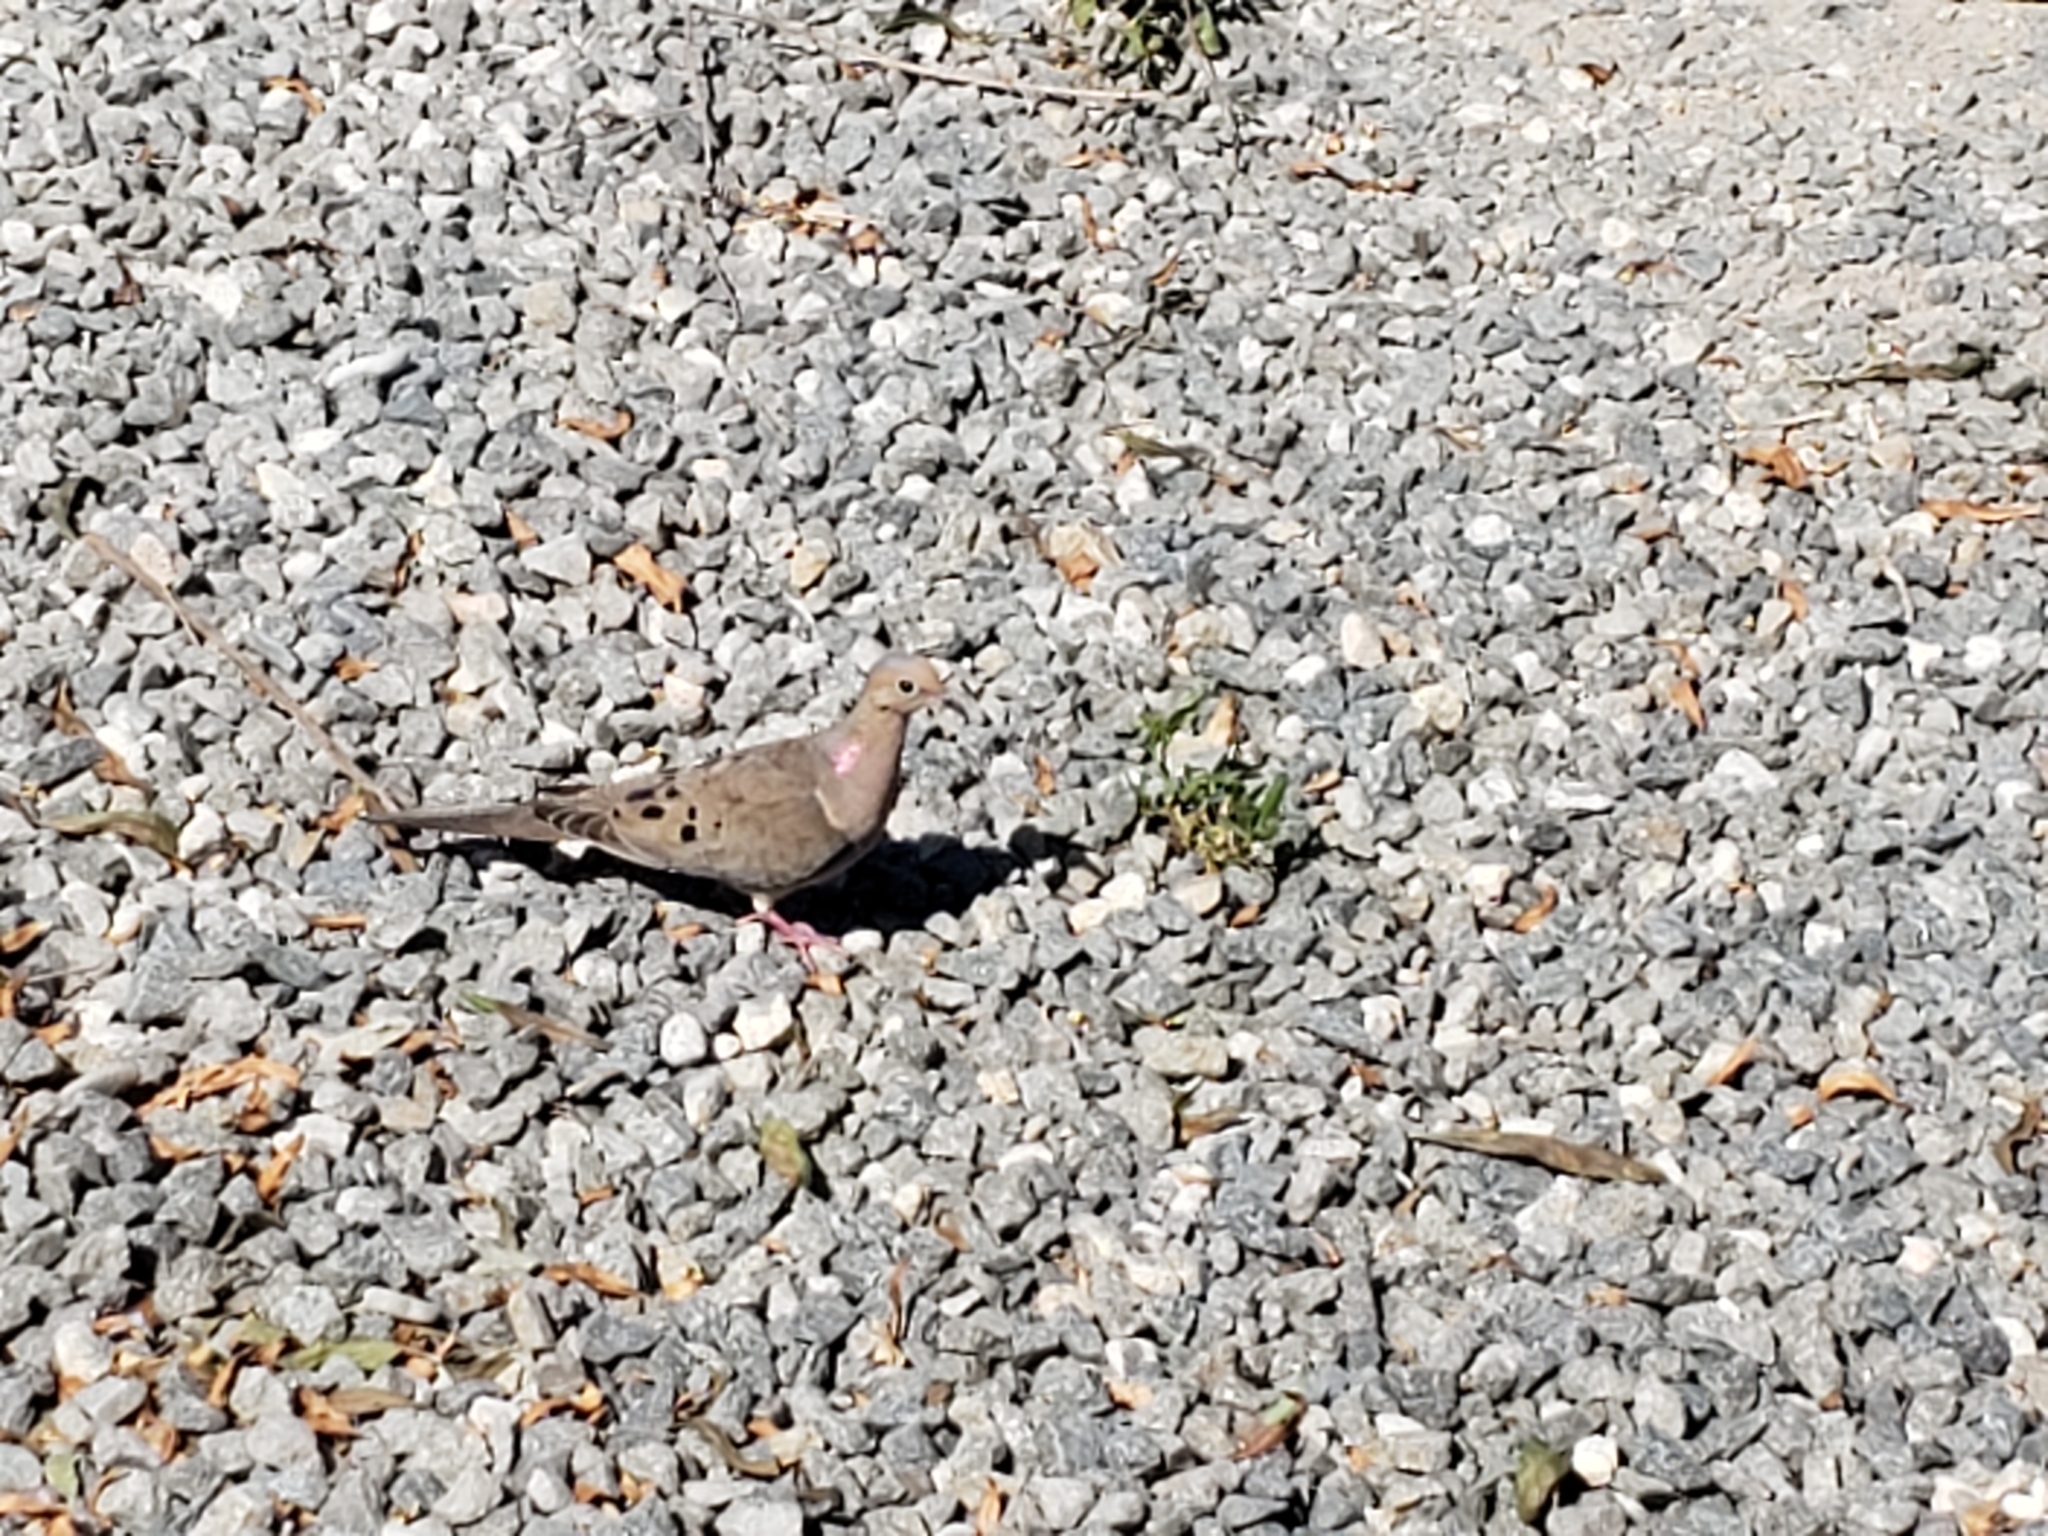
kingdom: Animalia
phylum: Chordata
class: Aves
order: Columbiformes
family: Columbidae
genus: Zenaida
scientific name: Zenaida macroura
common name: Mourning dove
